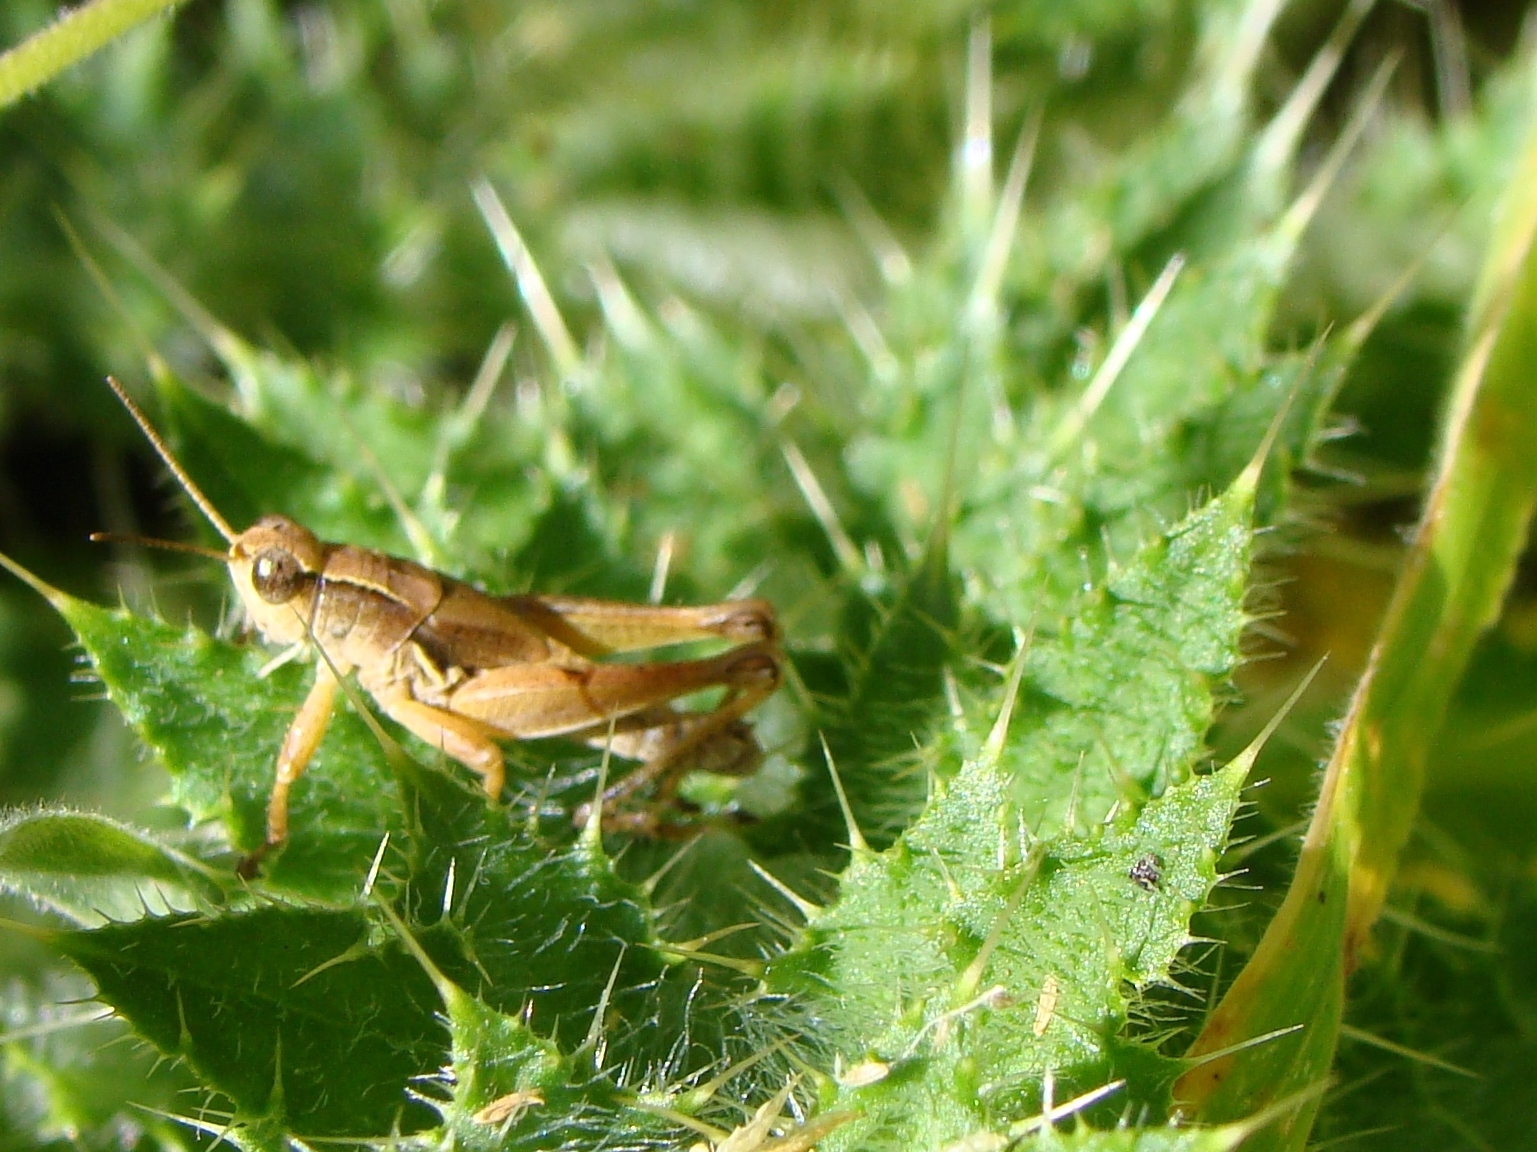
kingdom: Animalia
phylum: Arthropoda
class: Insecta
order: Orthoptera
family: Acrididae
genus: Phaulacridium
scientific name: Phaulacridium marginale
